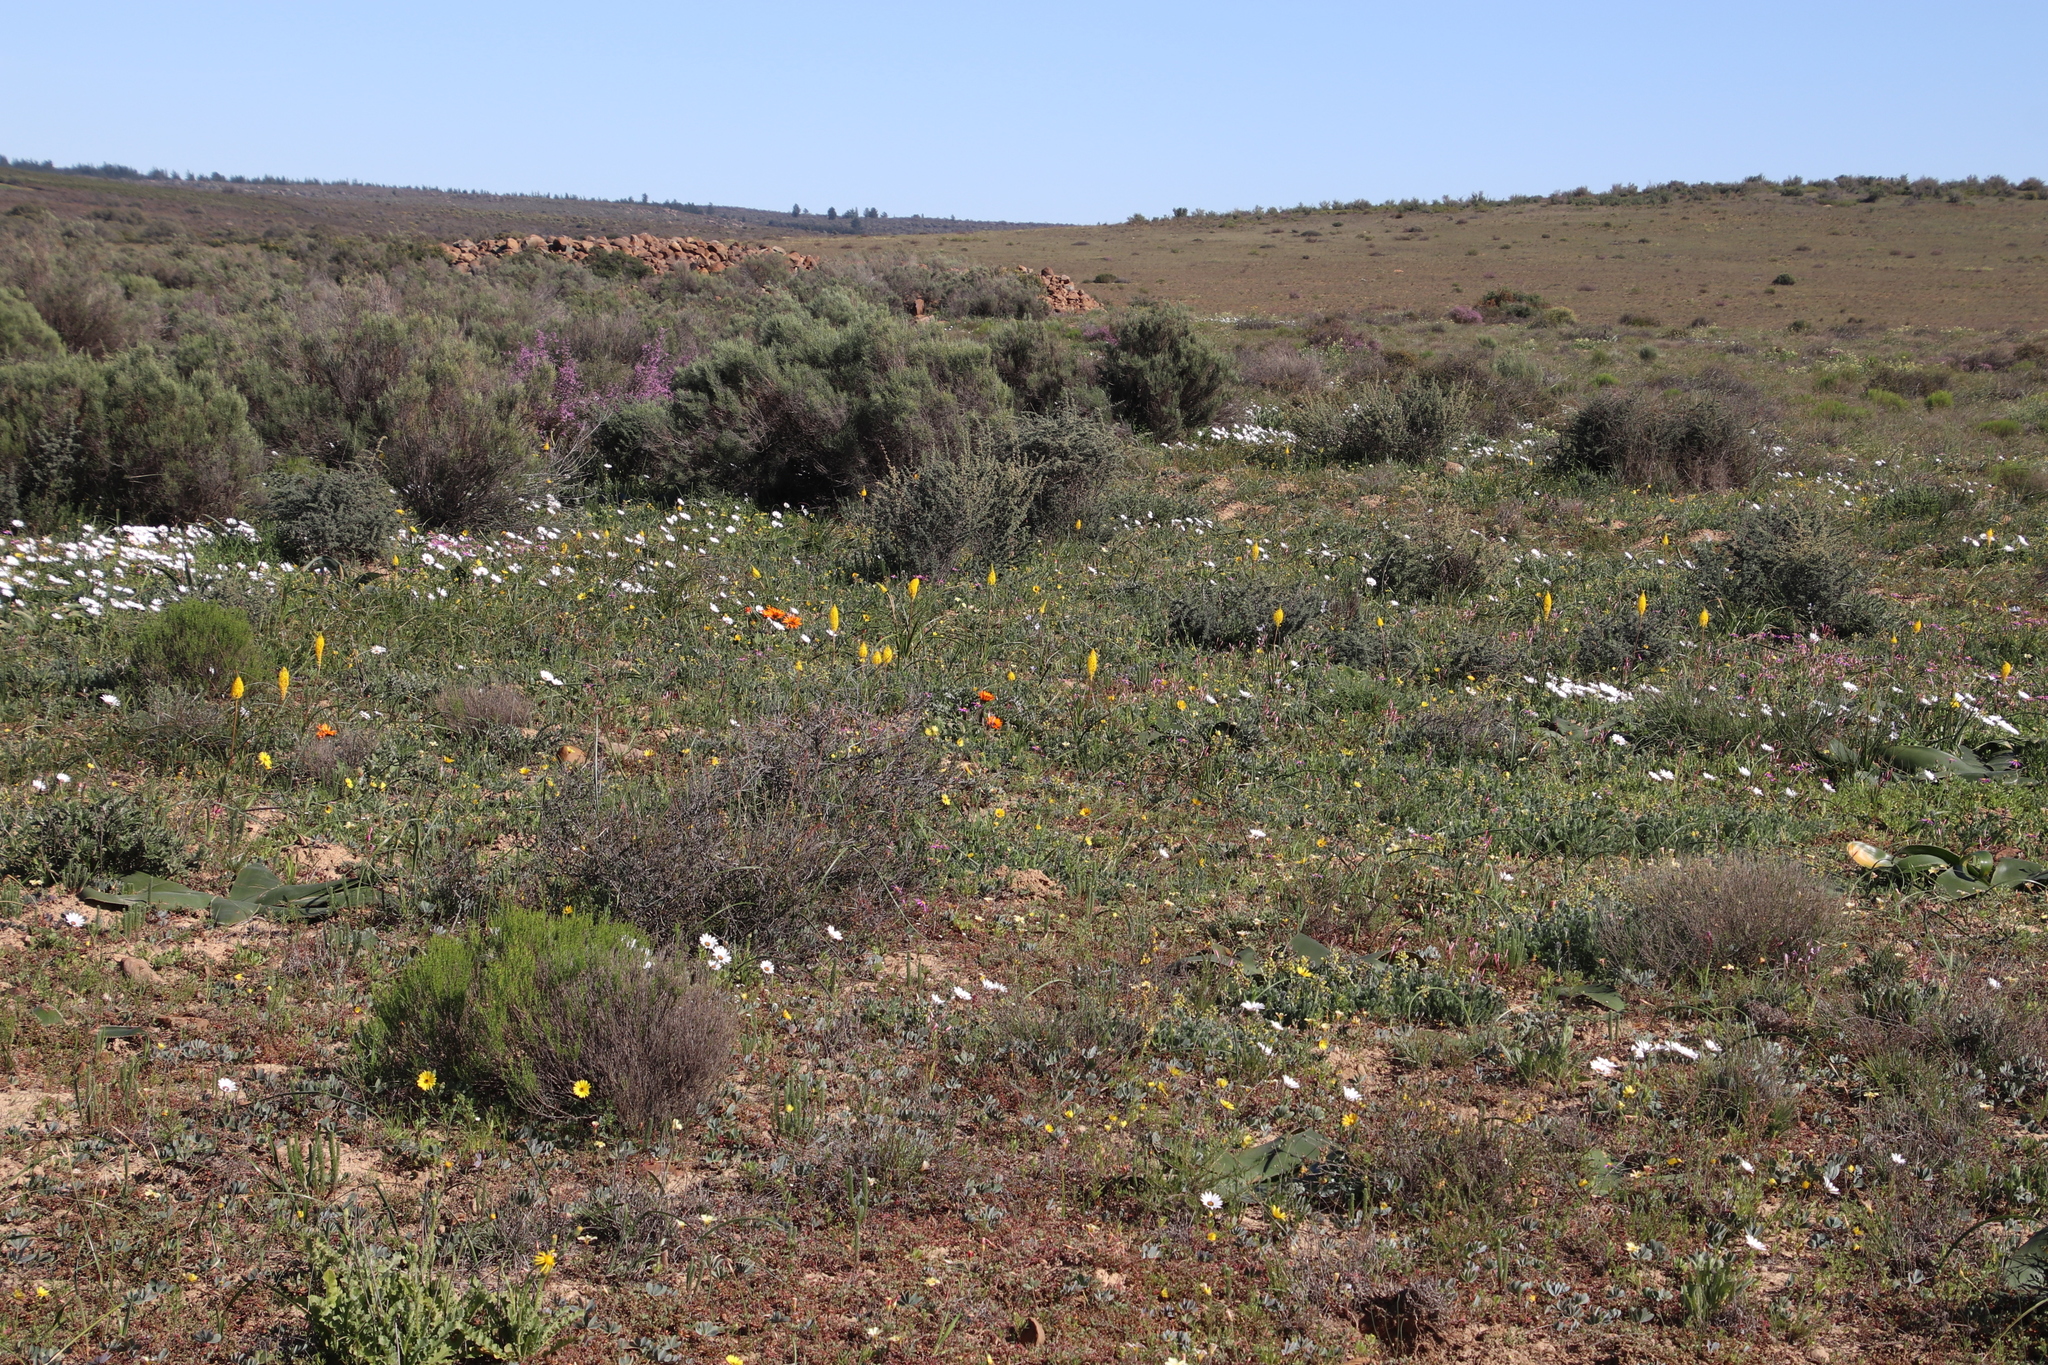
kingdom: Plantae
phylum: Tracheophyta
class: Liliopsida
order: Asparagales
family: Asphodelaceae
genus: Bulbinella
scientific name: Bulbinella nutans
